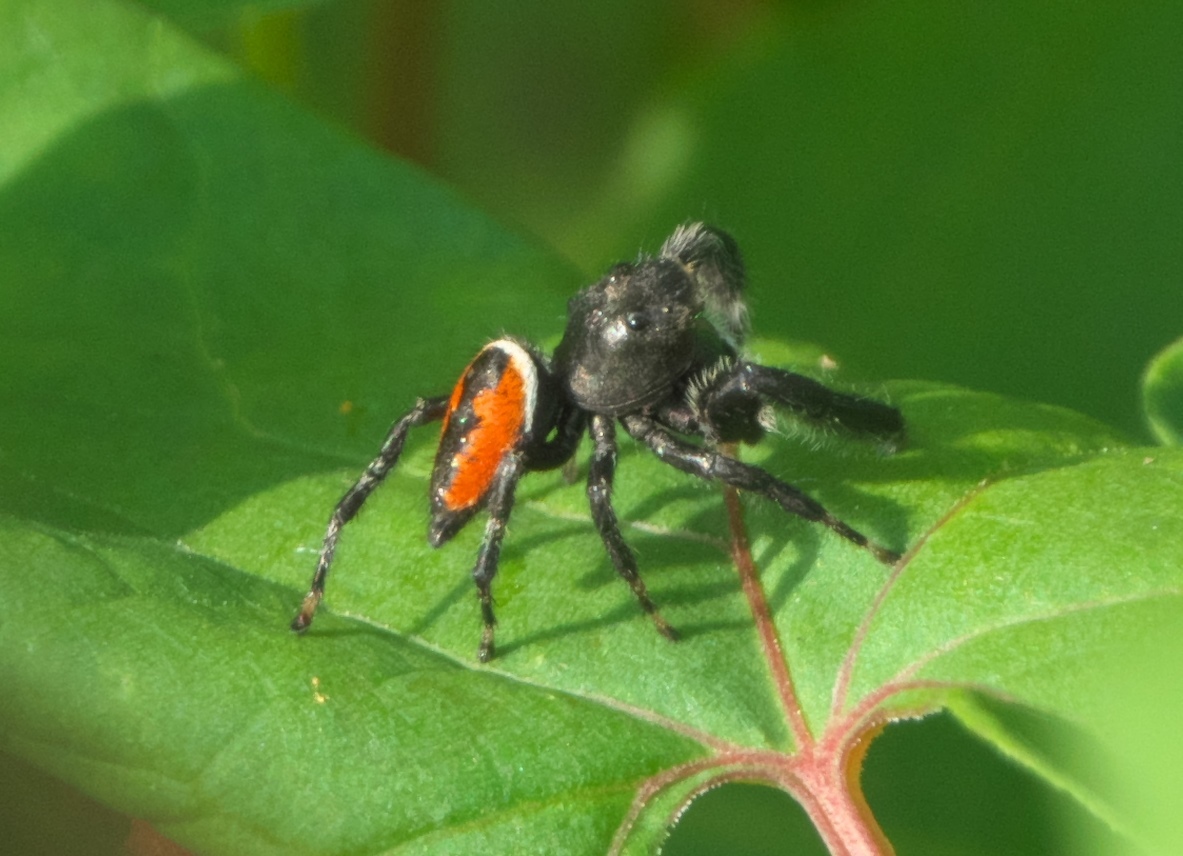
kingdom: Animalia
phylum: Arthropoda
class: Arachnida
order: Araneae
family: Salticidae
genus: Phidippus
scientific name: Phidippus clarus
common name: Brilliant jumping spider
